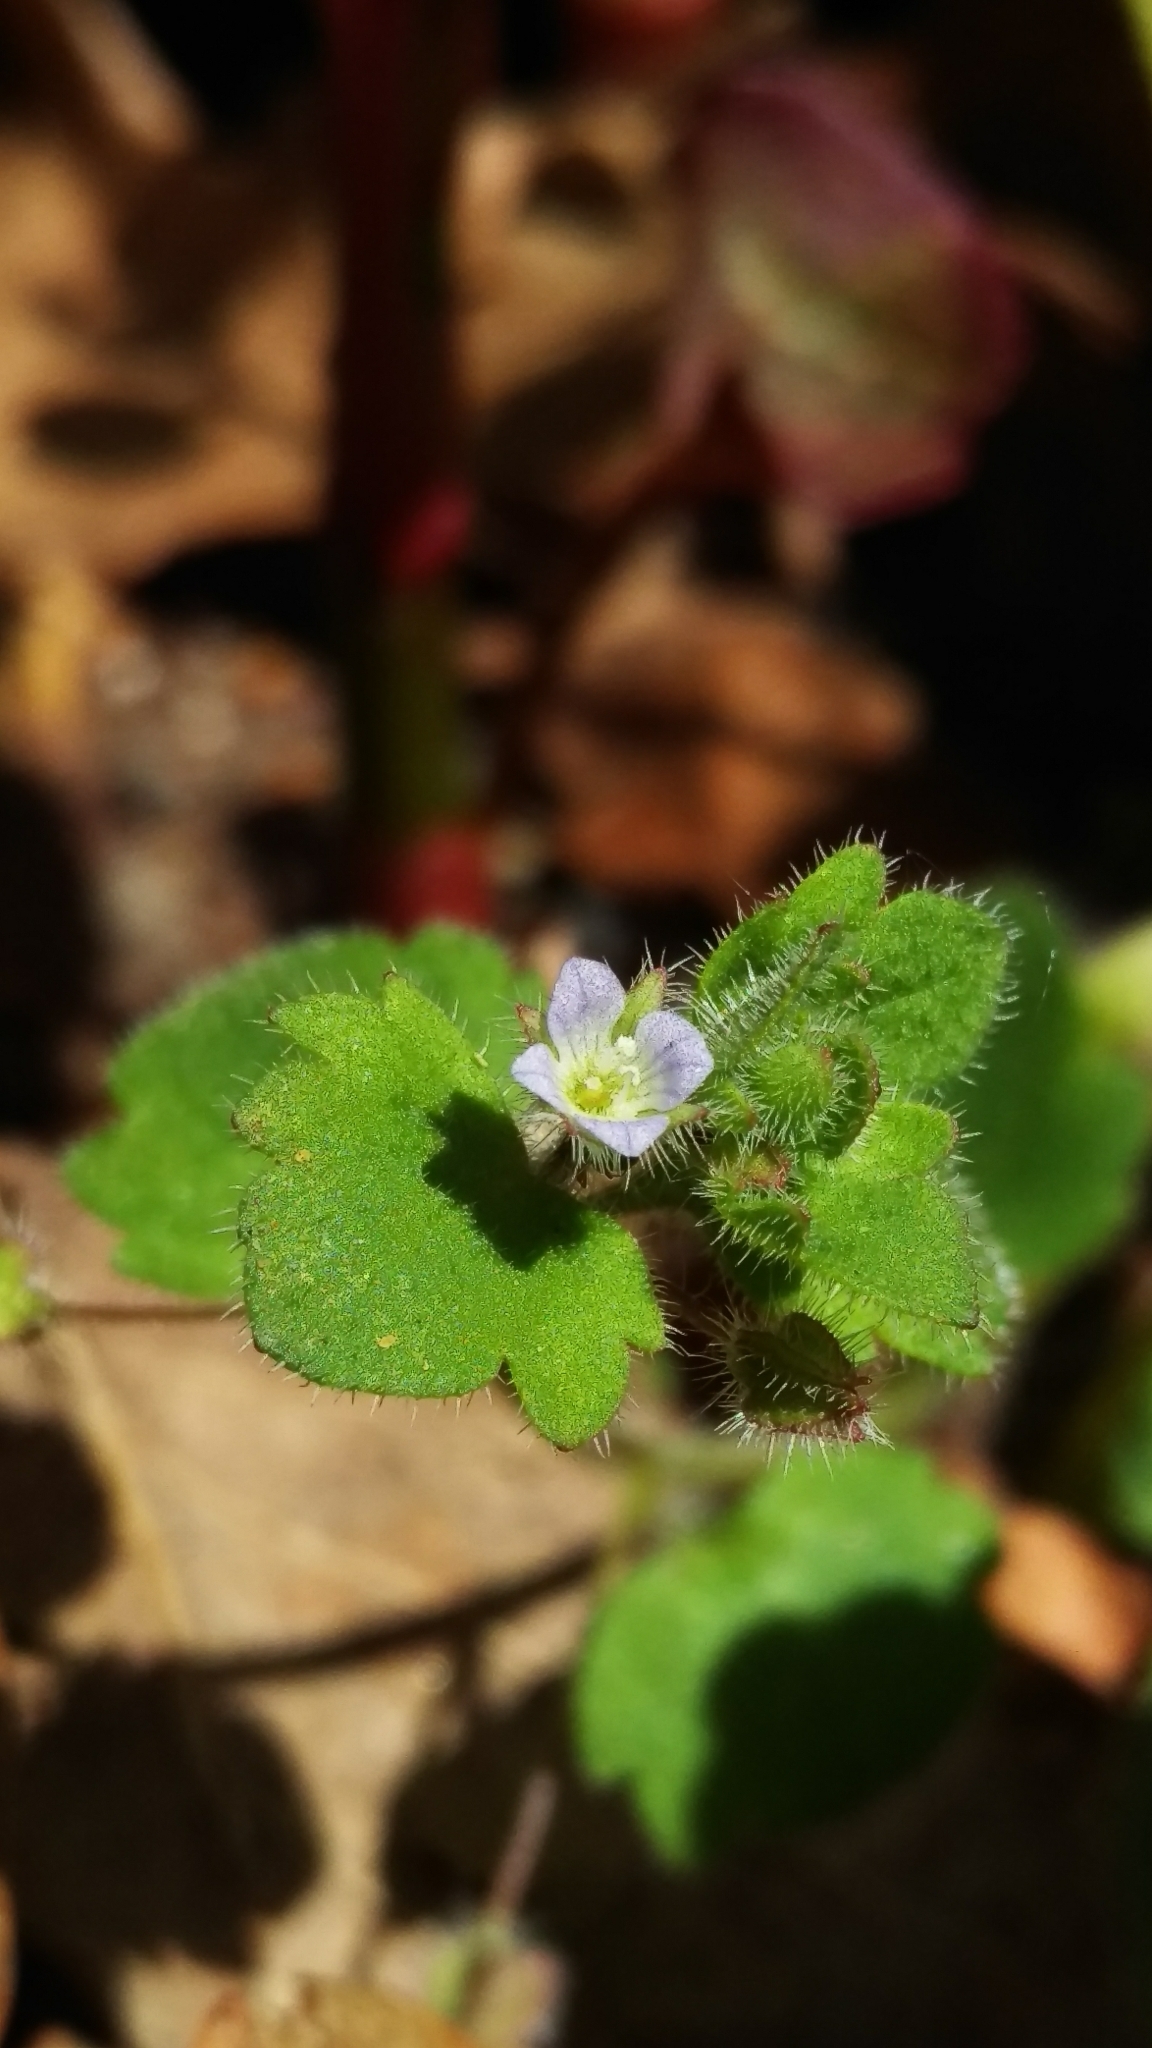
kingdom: Plantae
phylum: Tracheophyta
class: Magnoliopsida
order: Lamiales
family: Plantaginaceae
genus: Veronica
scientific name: Veronica hederifolia
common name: Ivy-leaved speedwell
